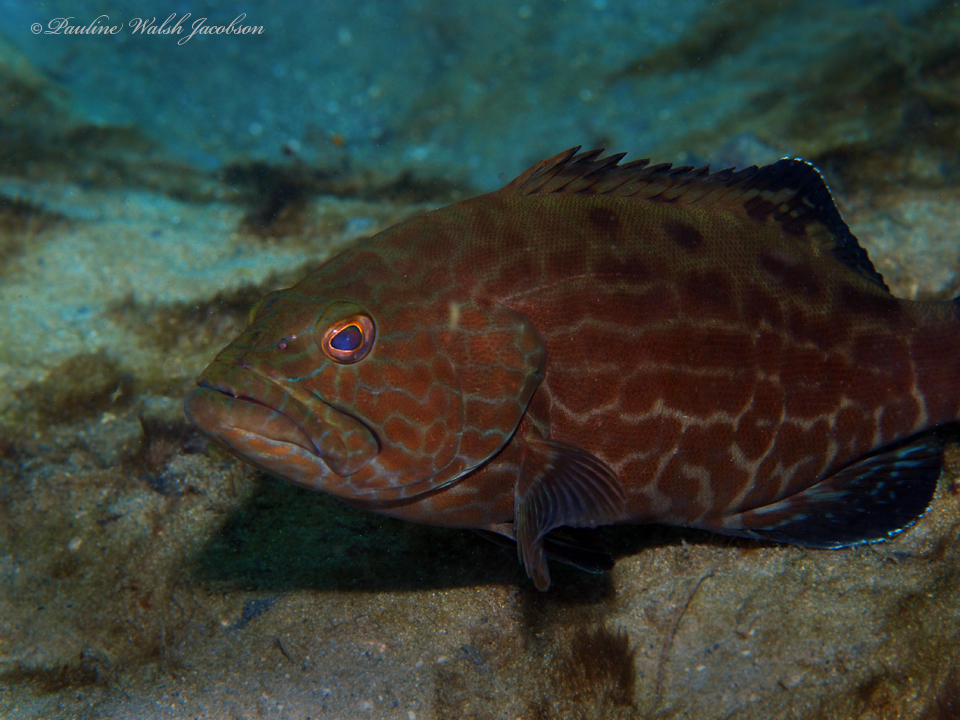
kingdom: Animalia
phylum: Chordata
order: Perciformes
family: Serranidae
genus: Mycteroperca
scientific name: Mycteroperca bonaci
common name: Black grouper
